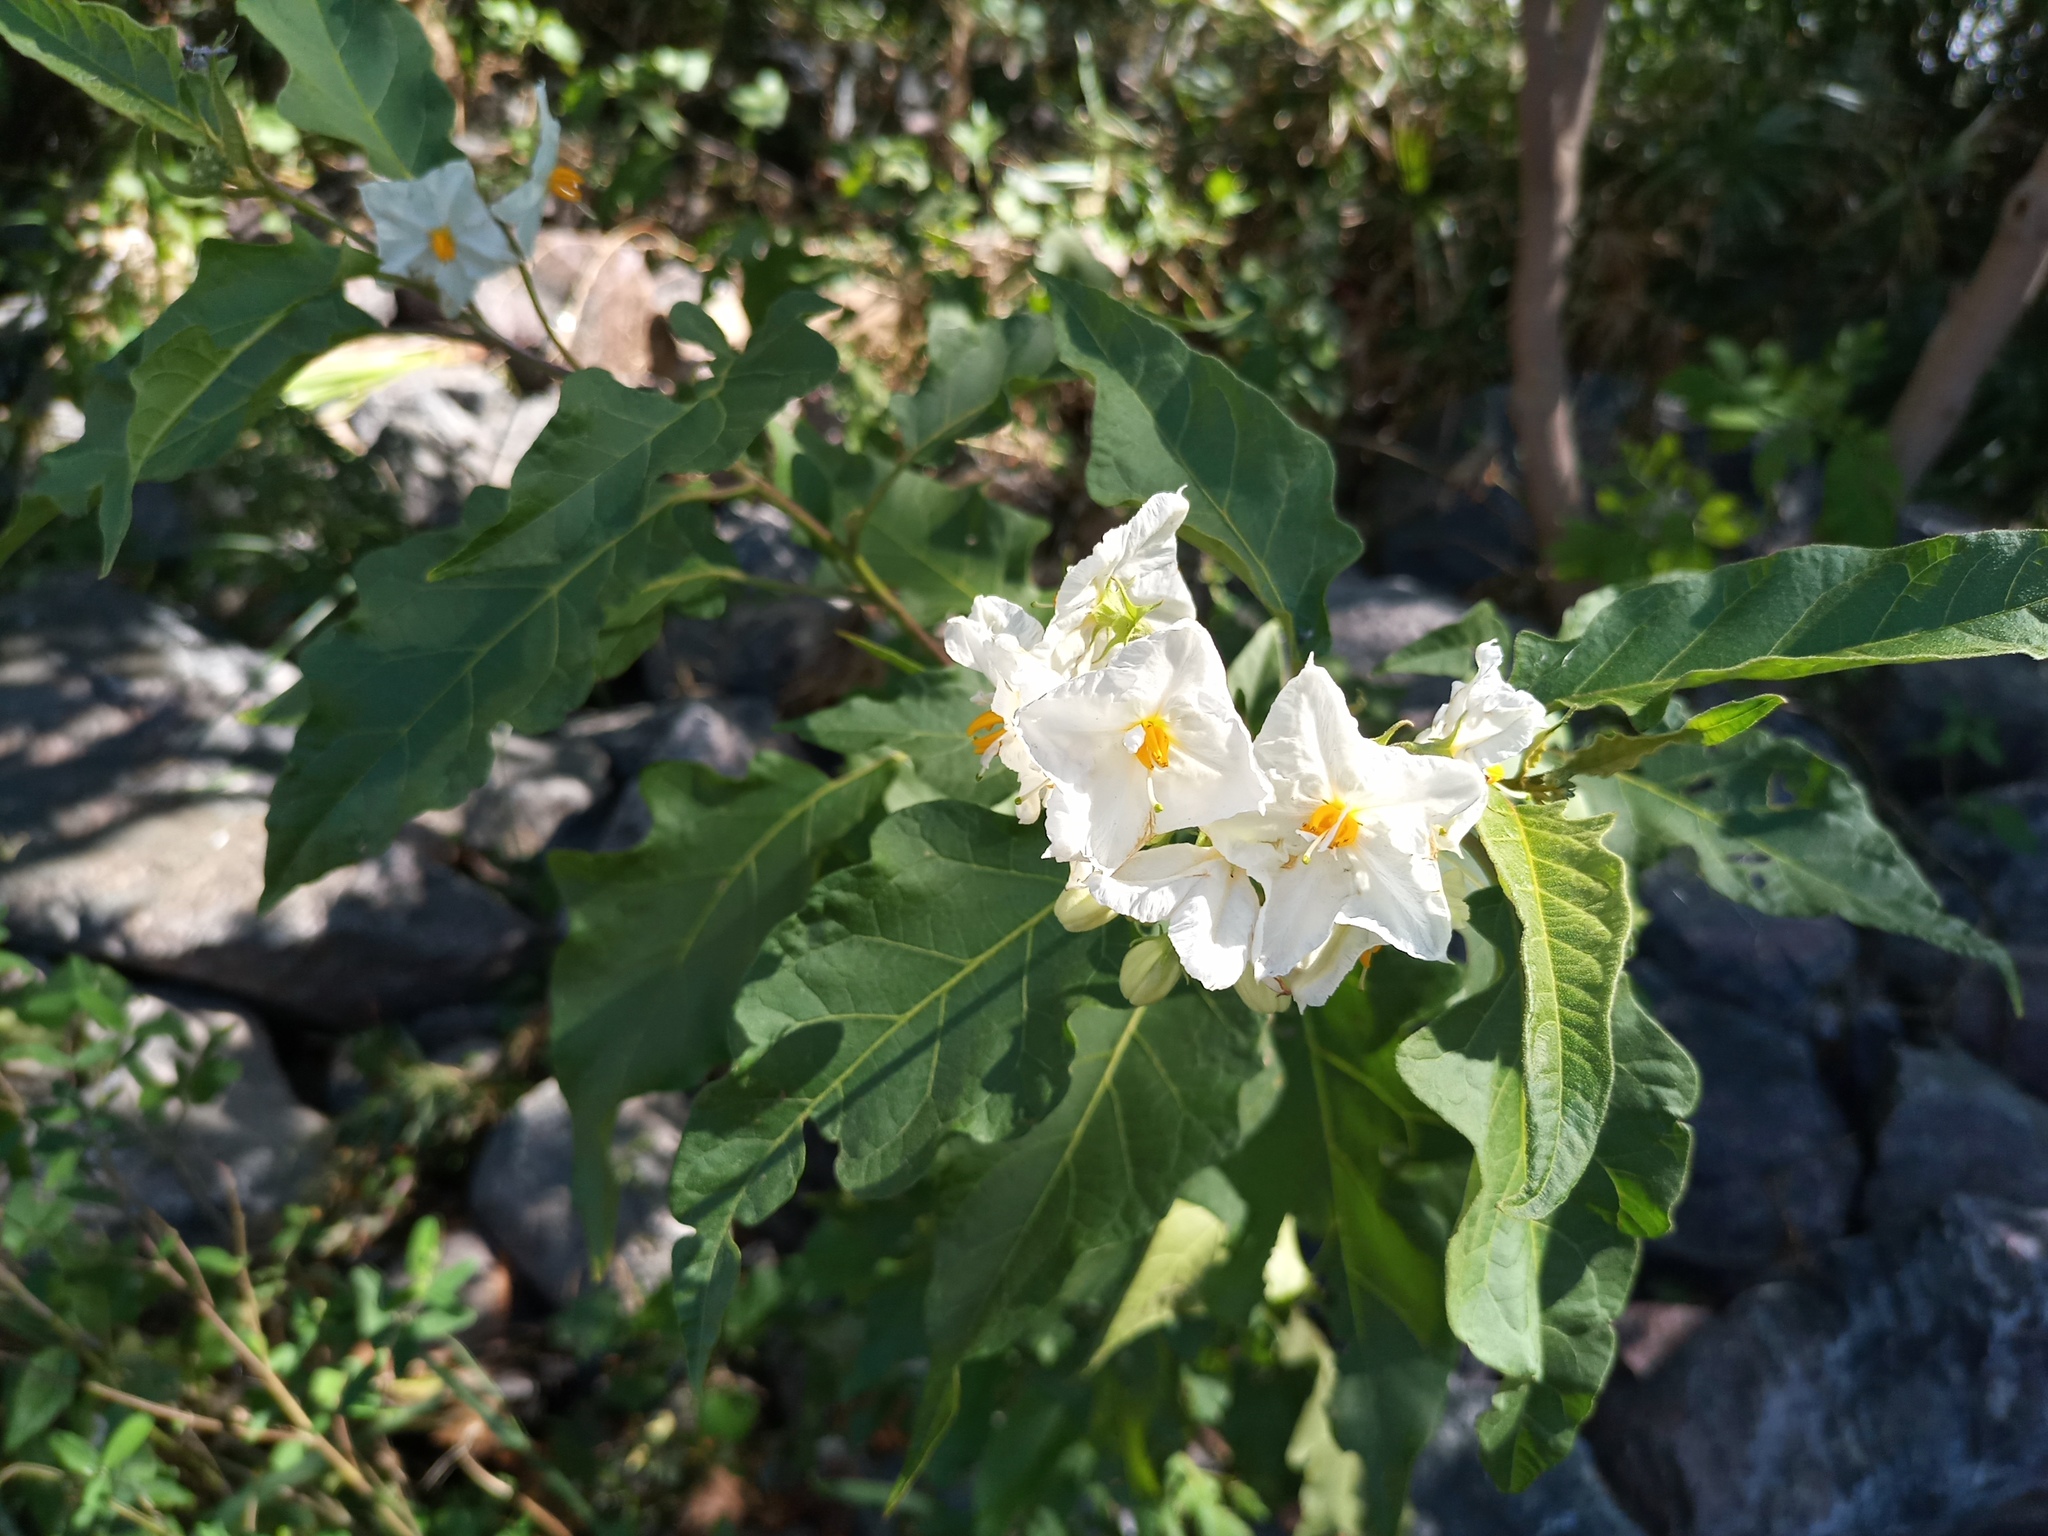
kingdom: Plantae
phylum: Tracheophyta
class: Magnoliopsida
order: Solanales
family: Solanaceae
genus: Solanum
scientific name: Solanum bonariense
